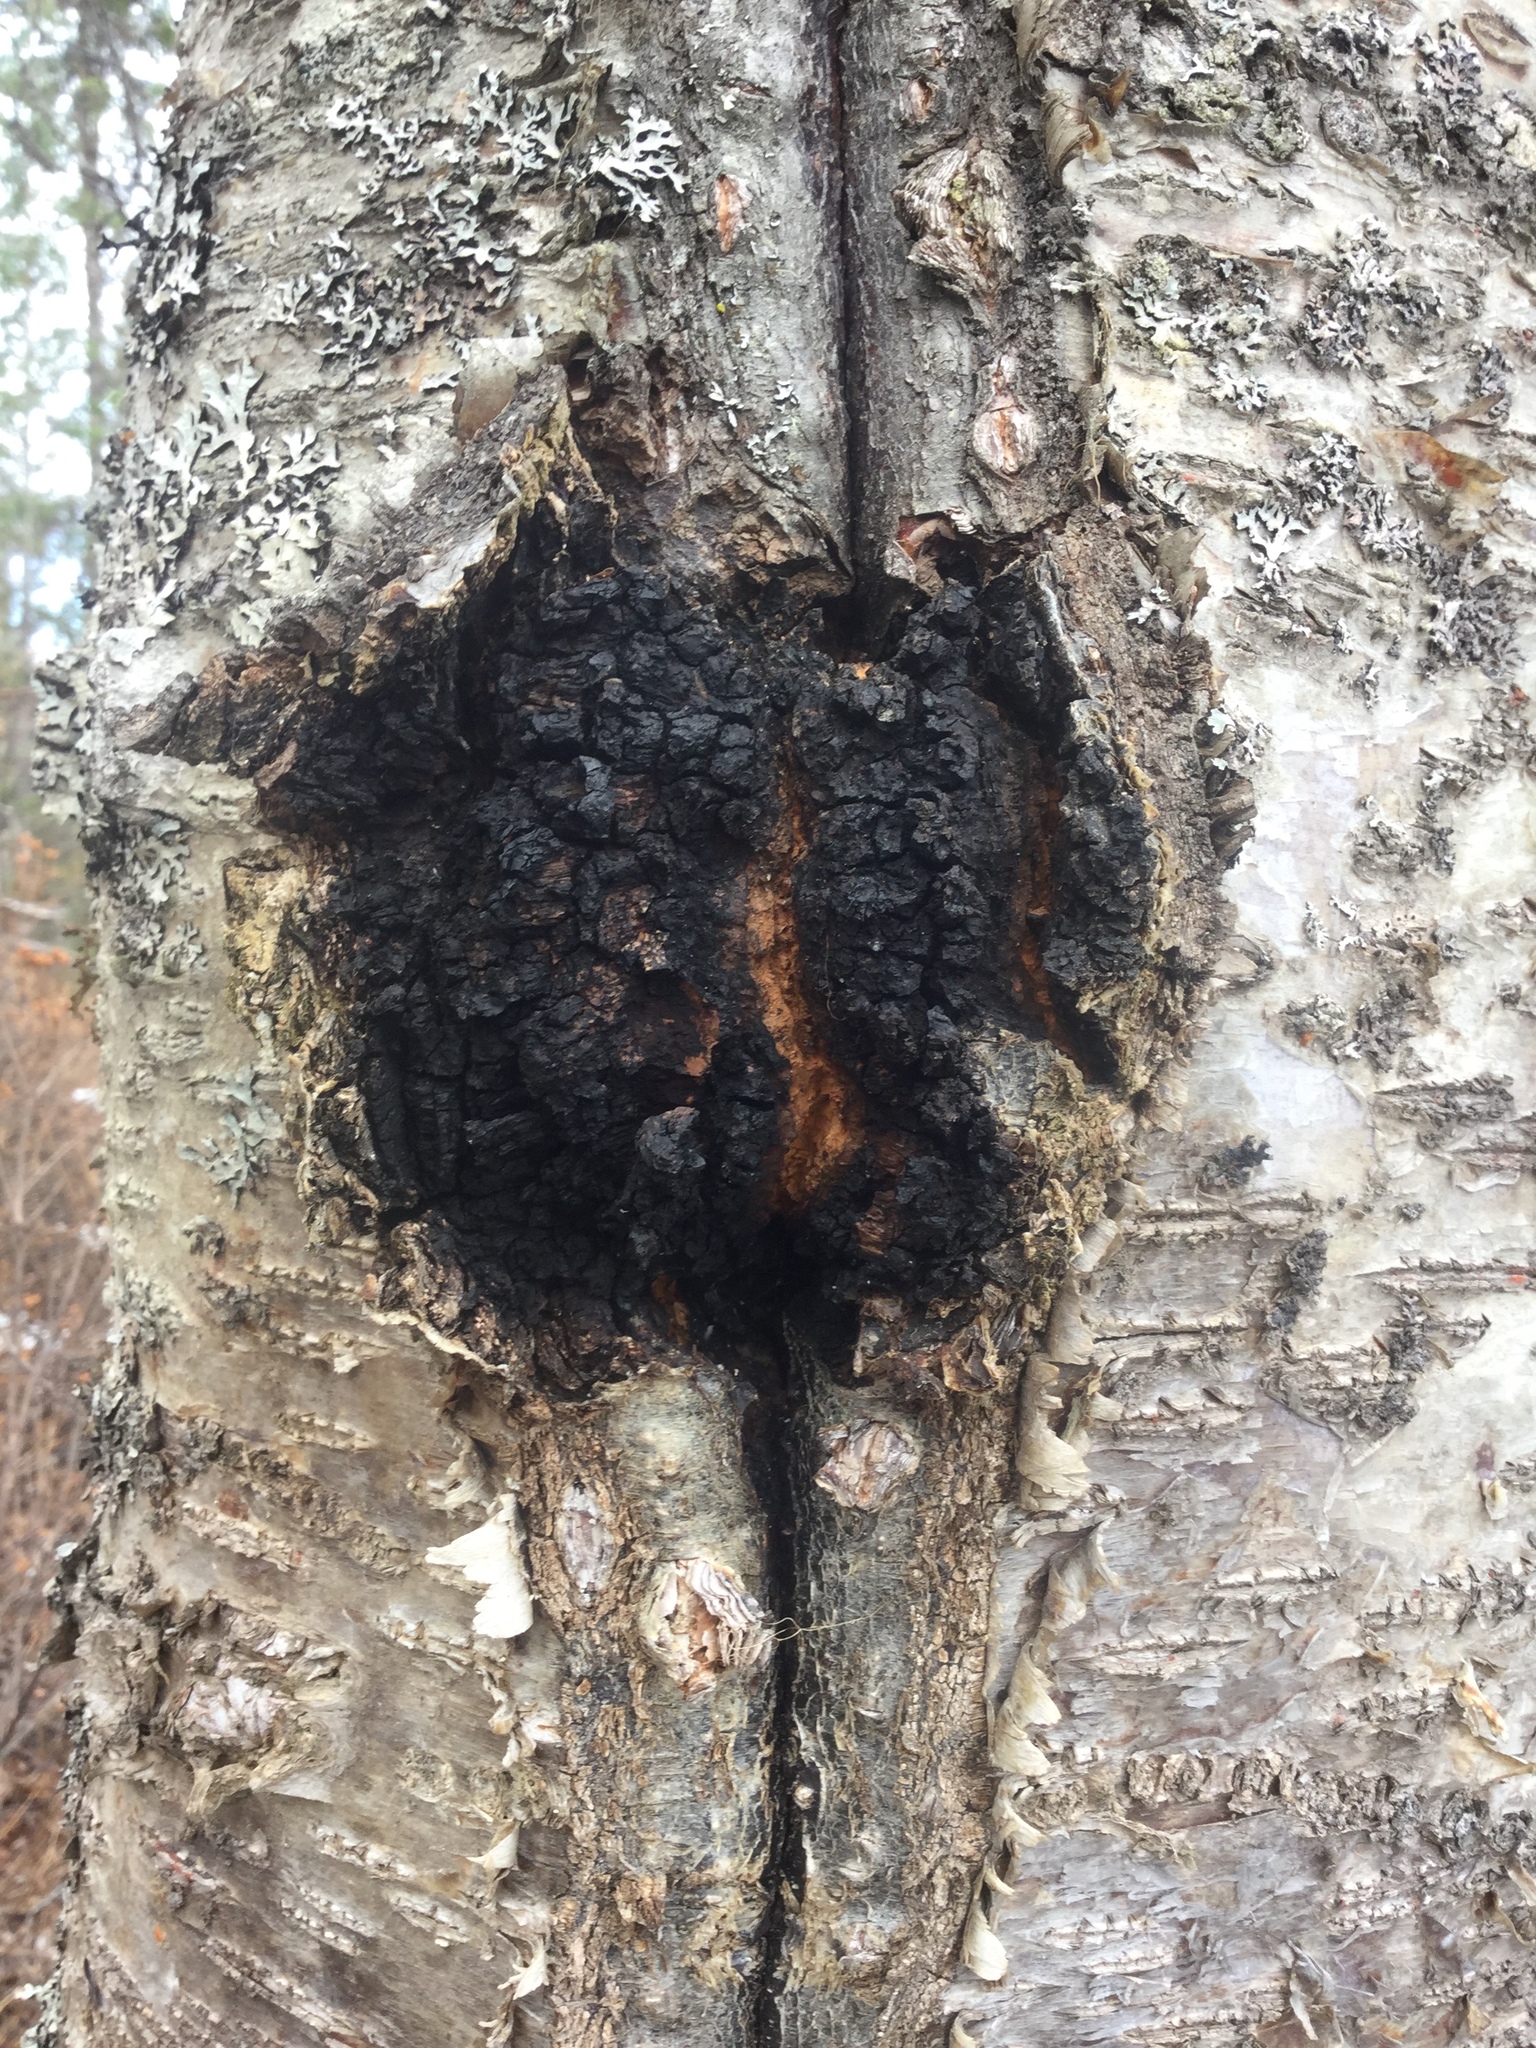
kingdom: Fungi
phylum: Basidiomycota
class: Agaricomycetes
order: Hymenochaetales
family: Hymenochaetaceae
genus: Inonotus
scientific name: Inonotus obliquus
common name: Chaga
